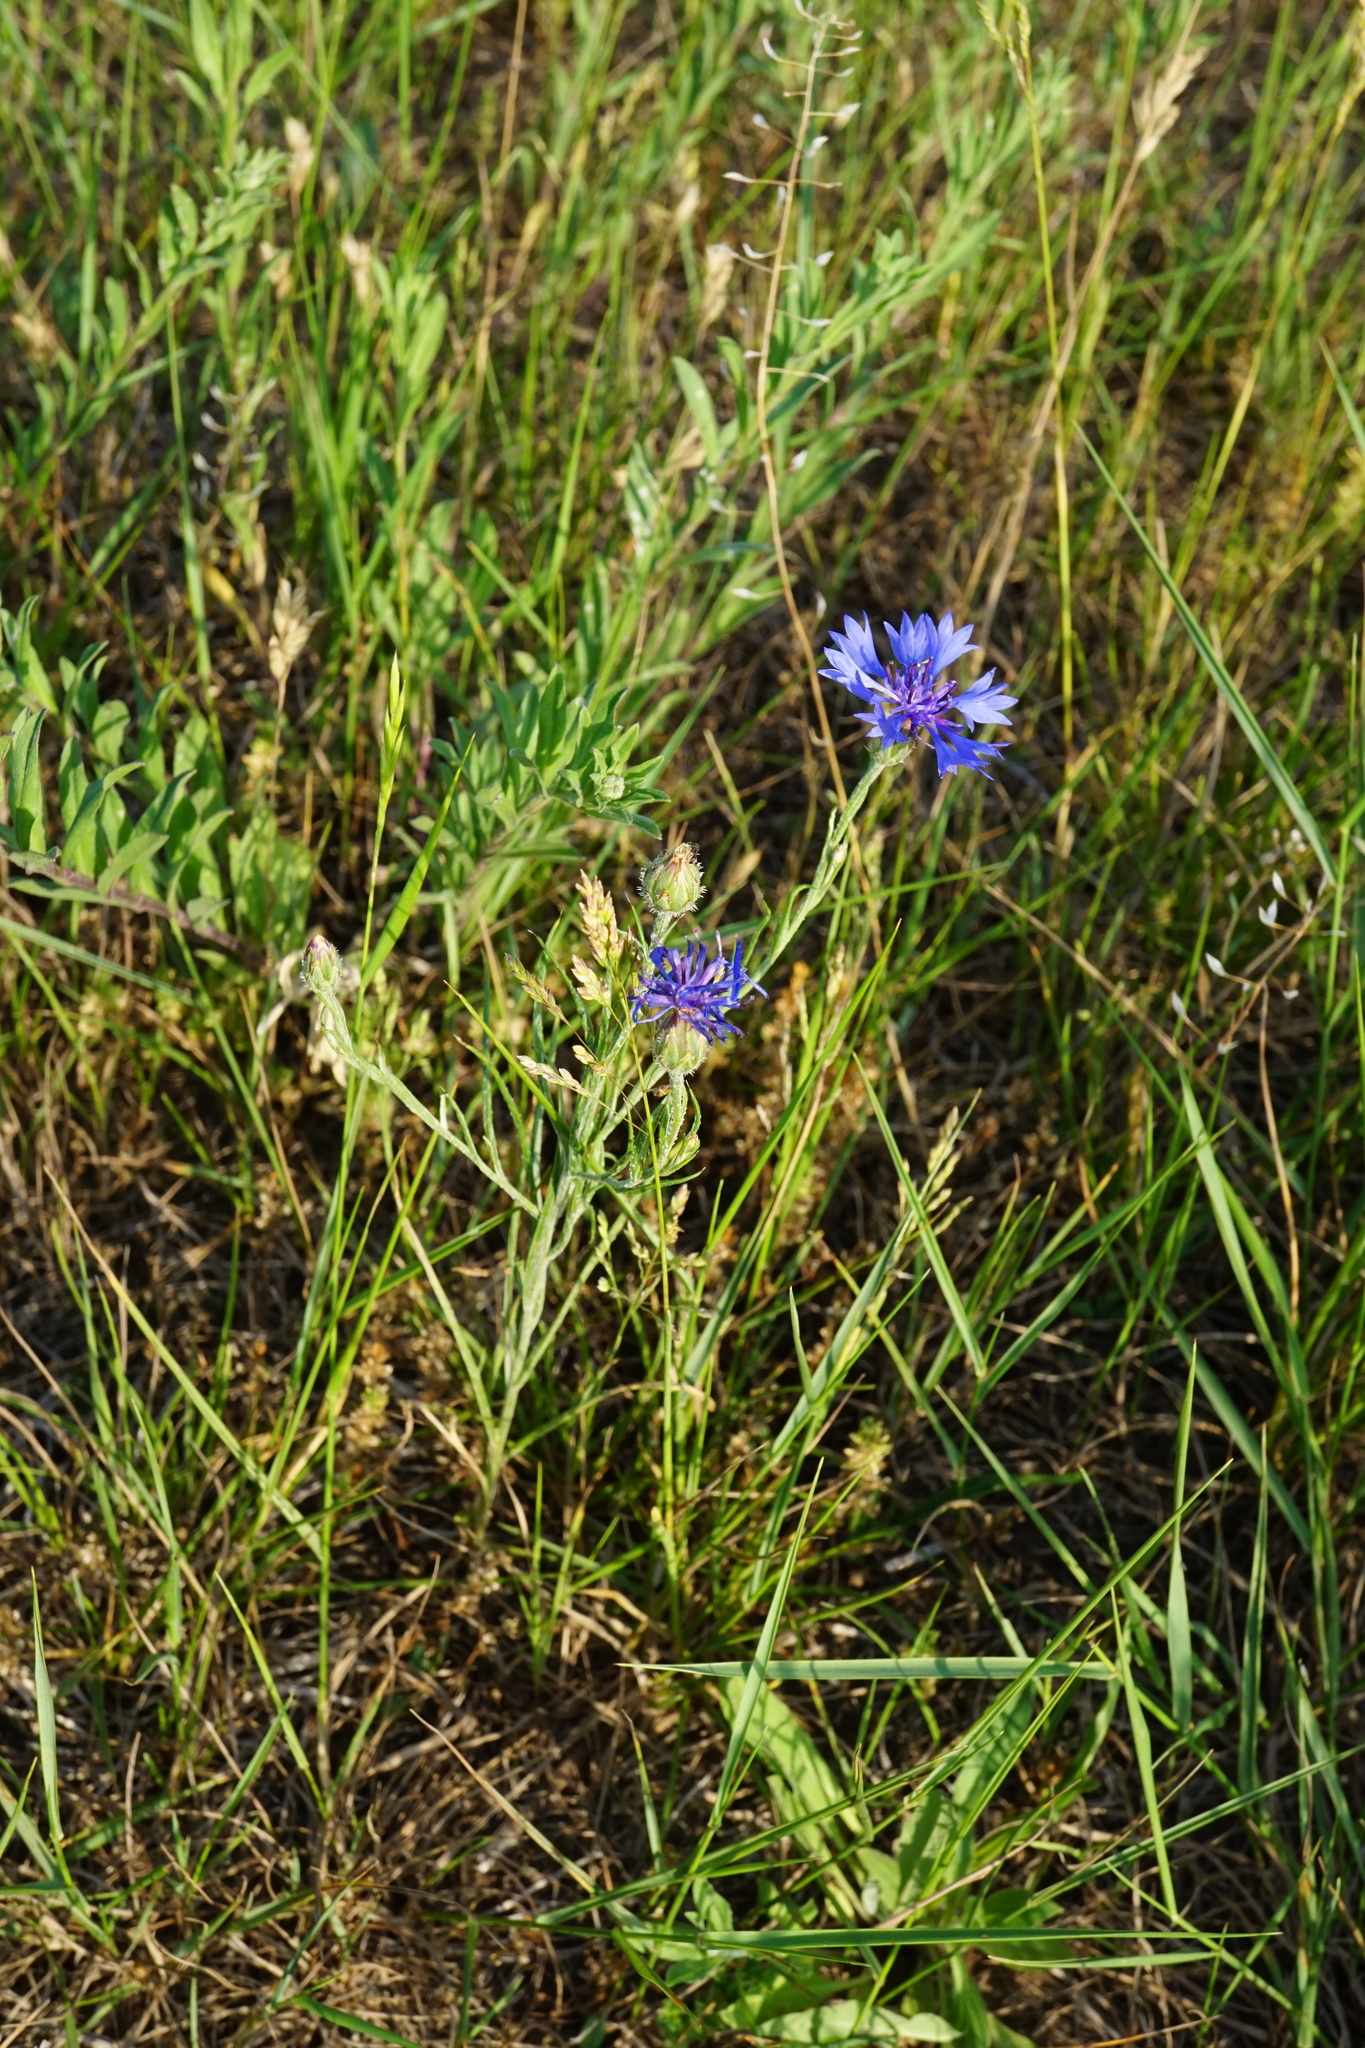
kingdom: Plantae
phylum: Tracheophyta
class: Magnoliopsida
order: Asterales
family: Asteraceae
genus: Centaurea
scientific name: Centaurea cyanus
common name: Cornflower
